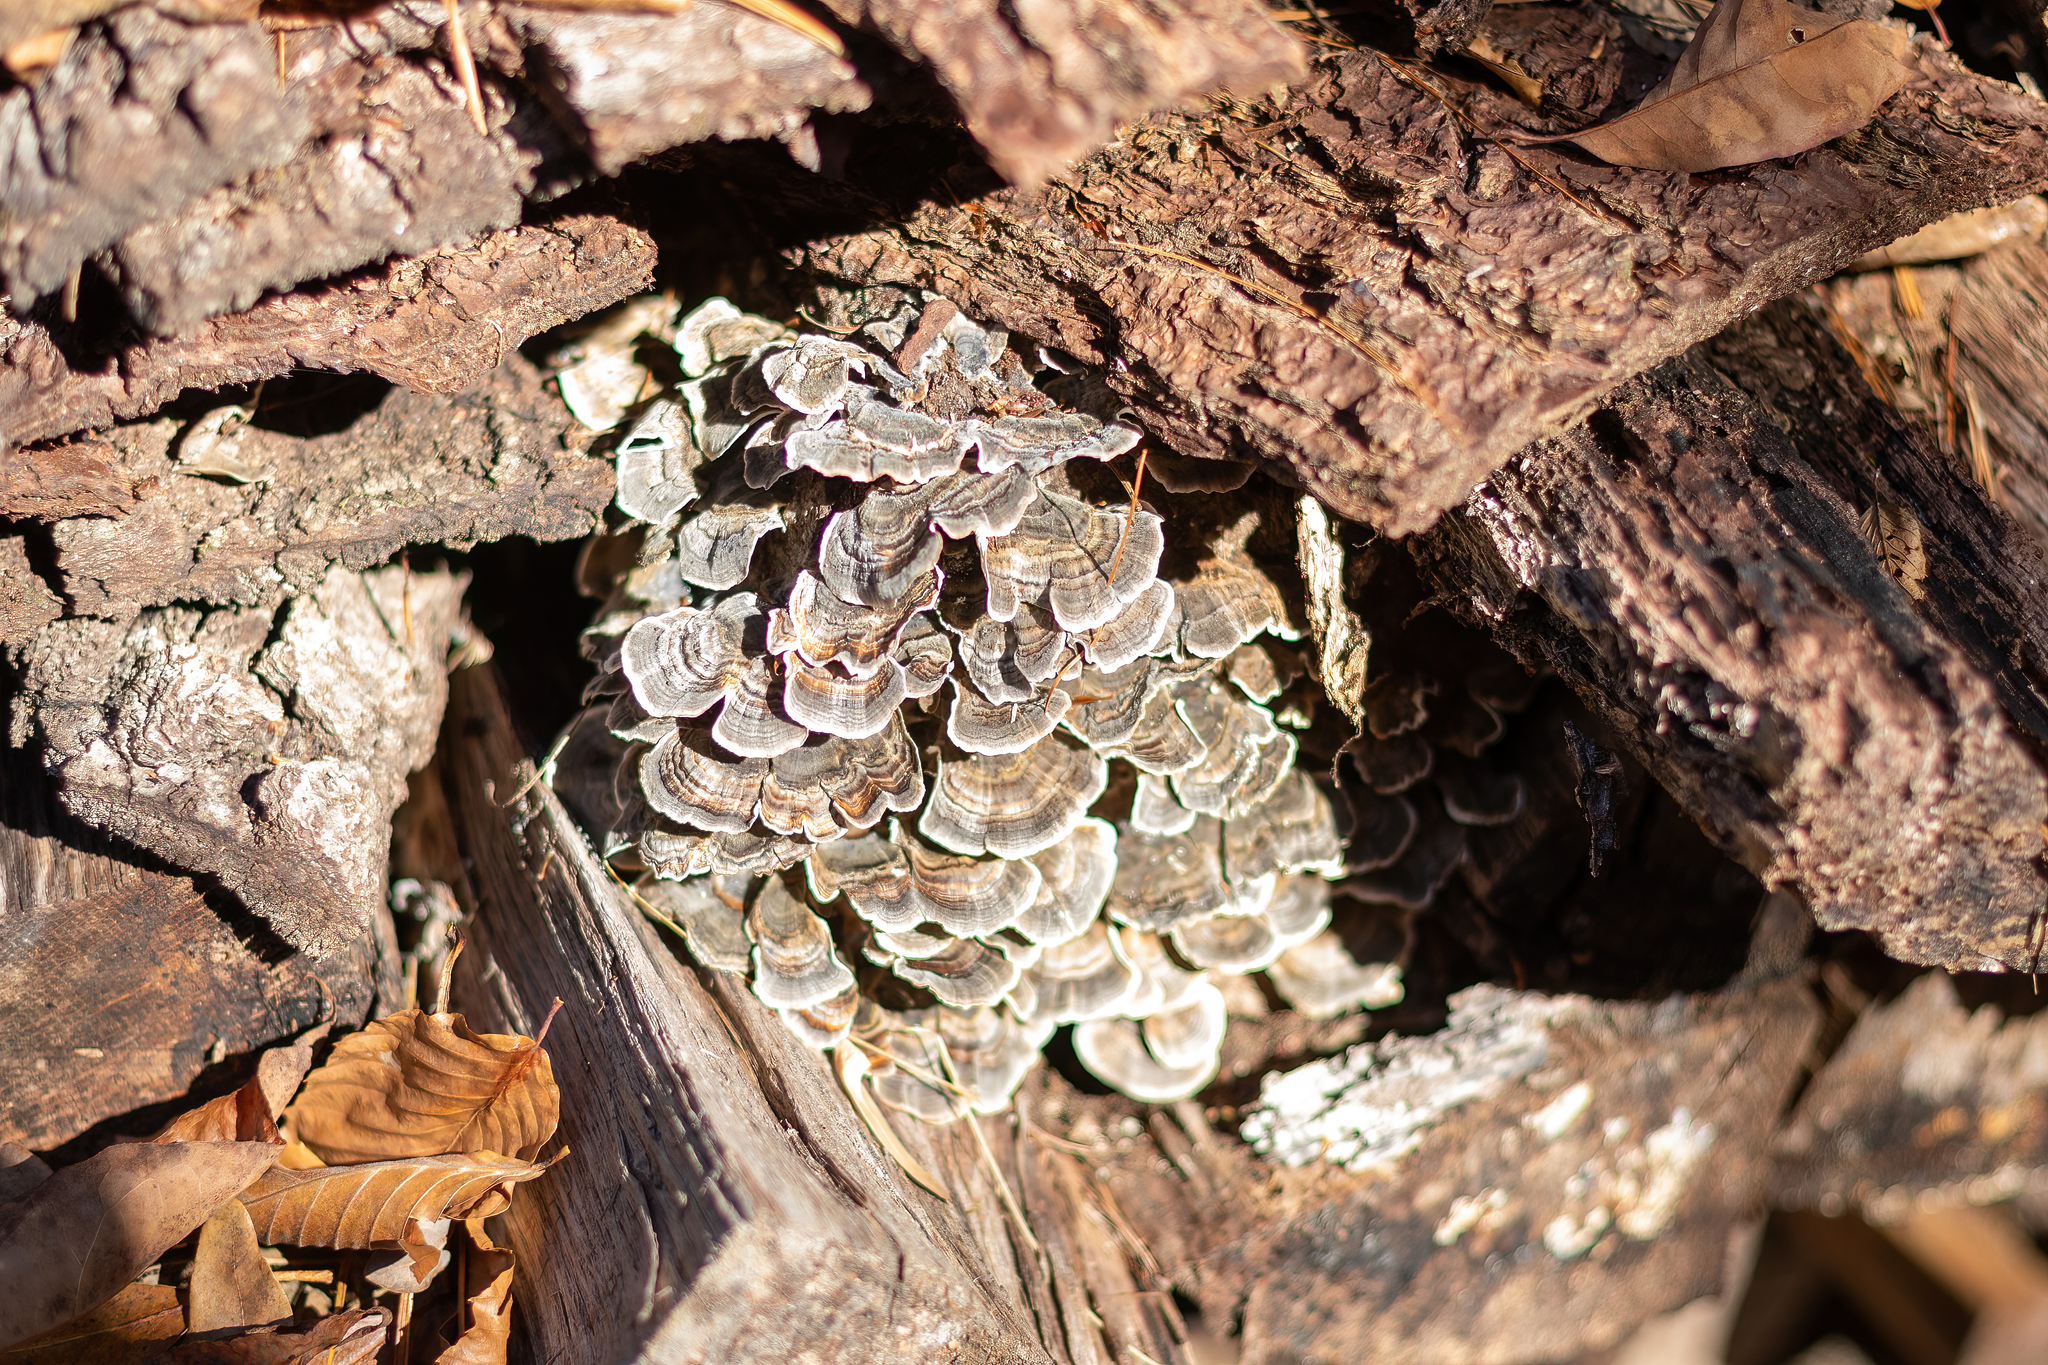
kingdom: Fungi
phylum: Basidiomycota
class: Agaricomycetes
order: Polyporales
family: Polyporaceae
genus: Trametes
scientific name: Trametes versicolor
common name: Turkeytail
